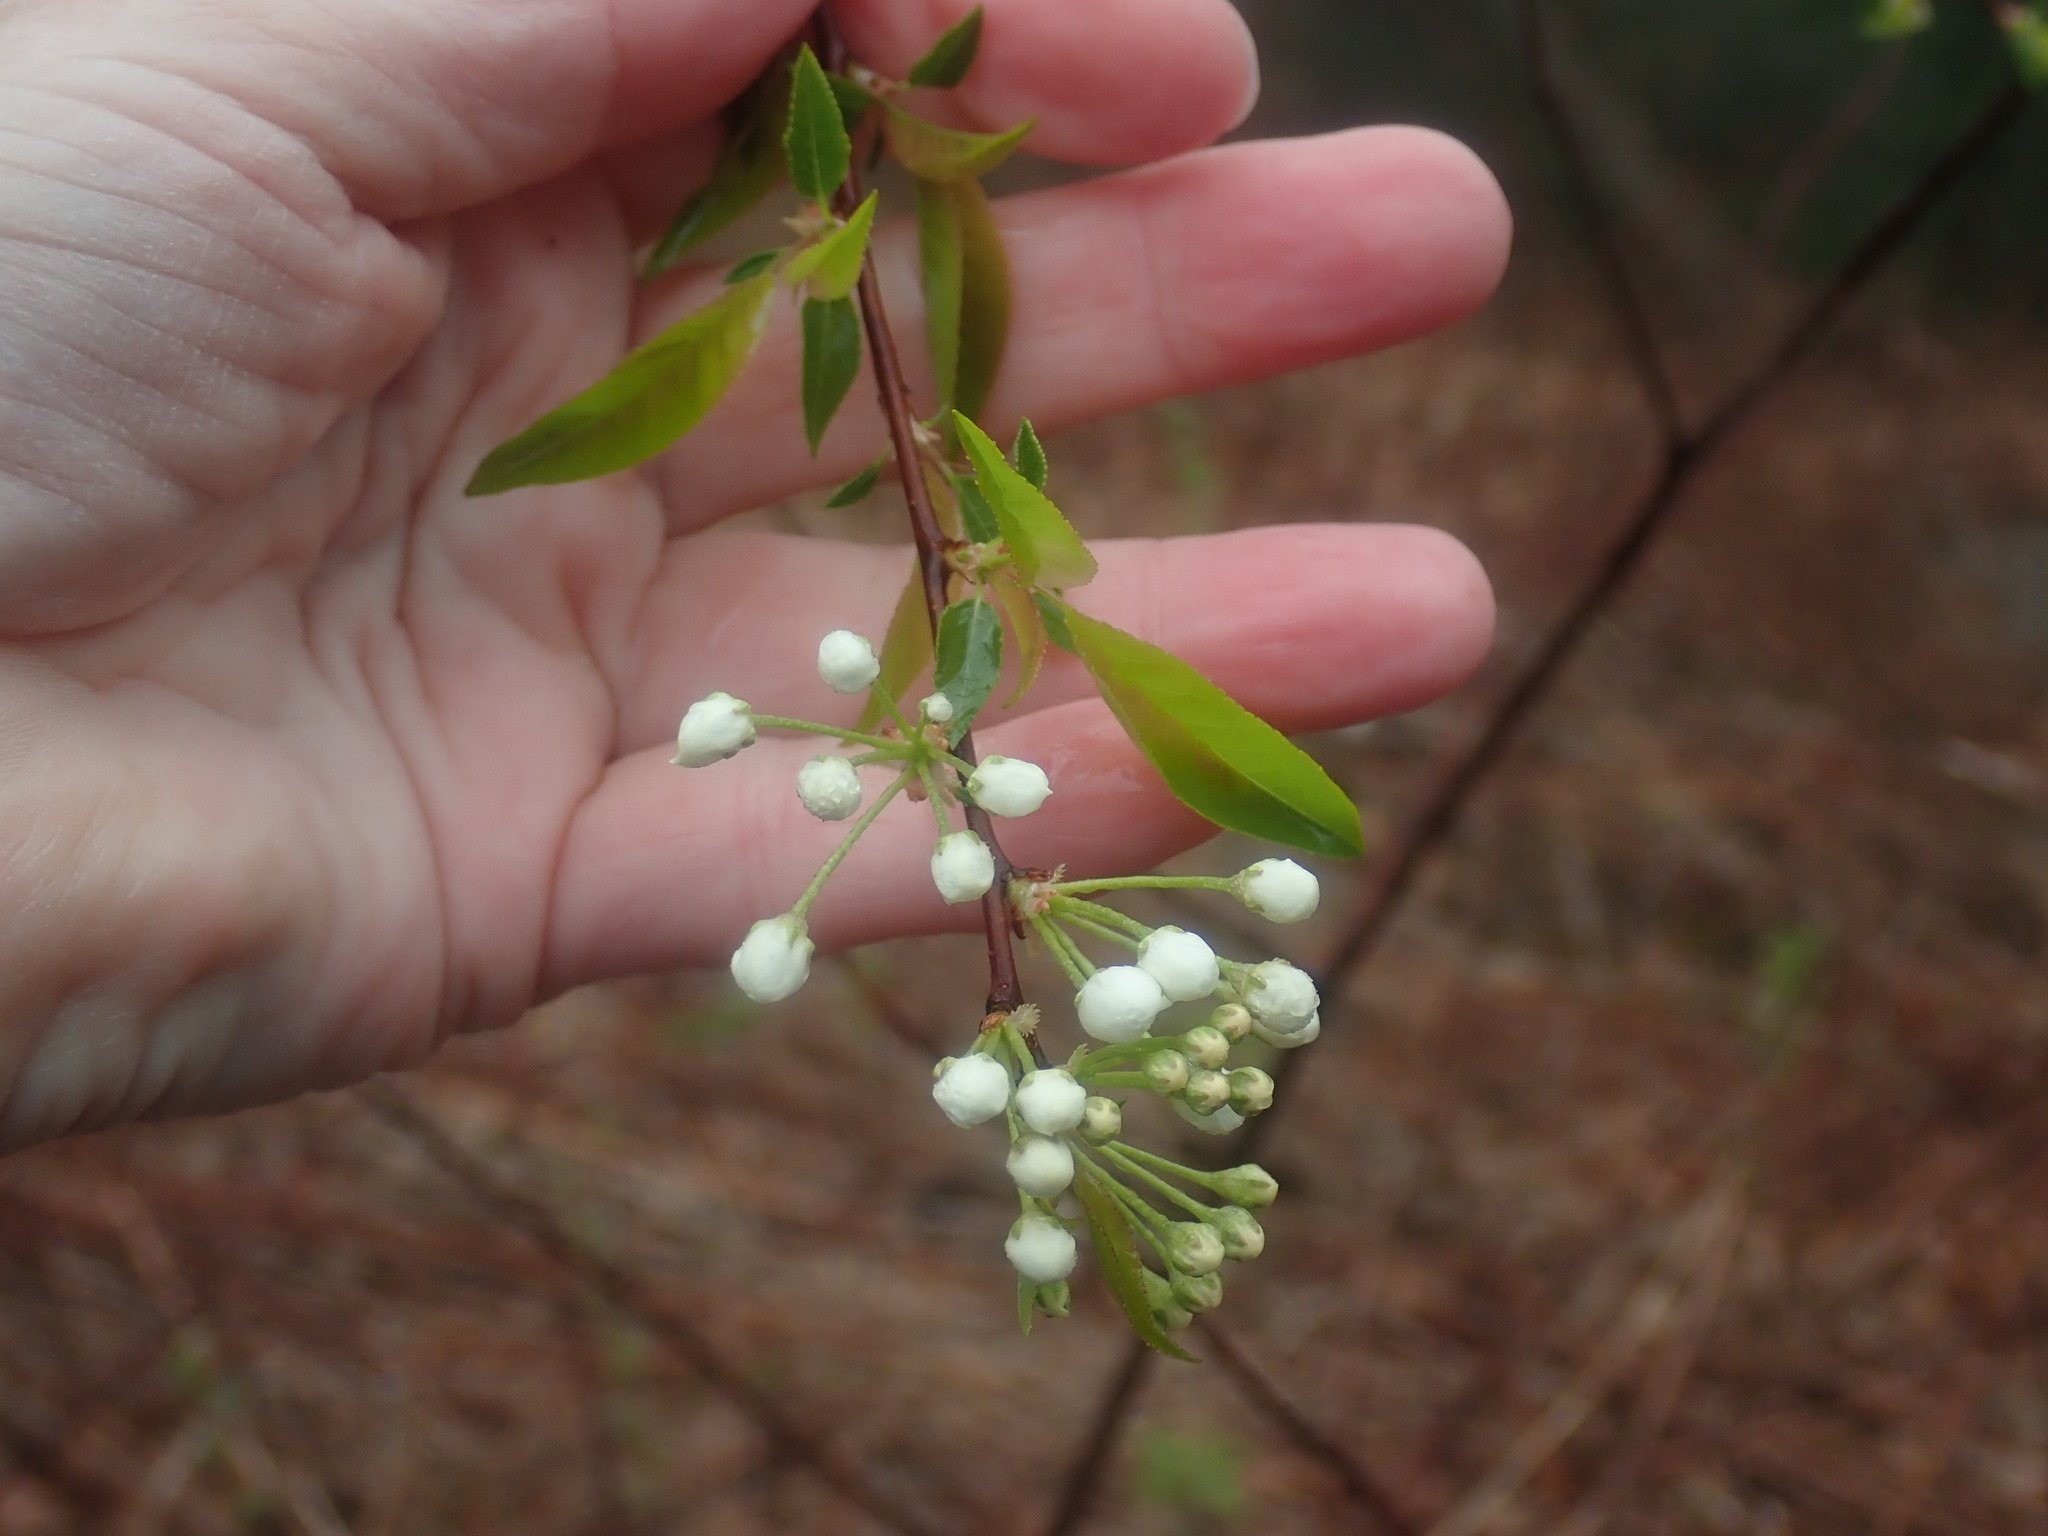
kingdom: Plantae
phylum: Tracheophyta
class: Magnoliopsida
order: Rosales
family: Rosaceae
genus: Prunus
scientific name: Prunus pensylvanica
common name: Pin cherry
